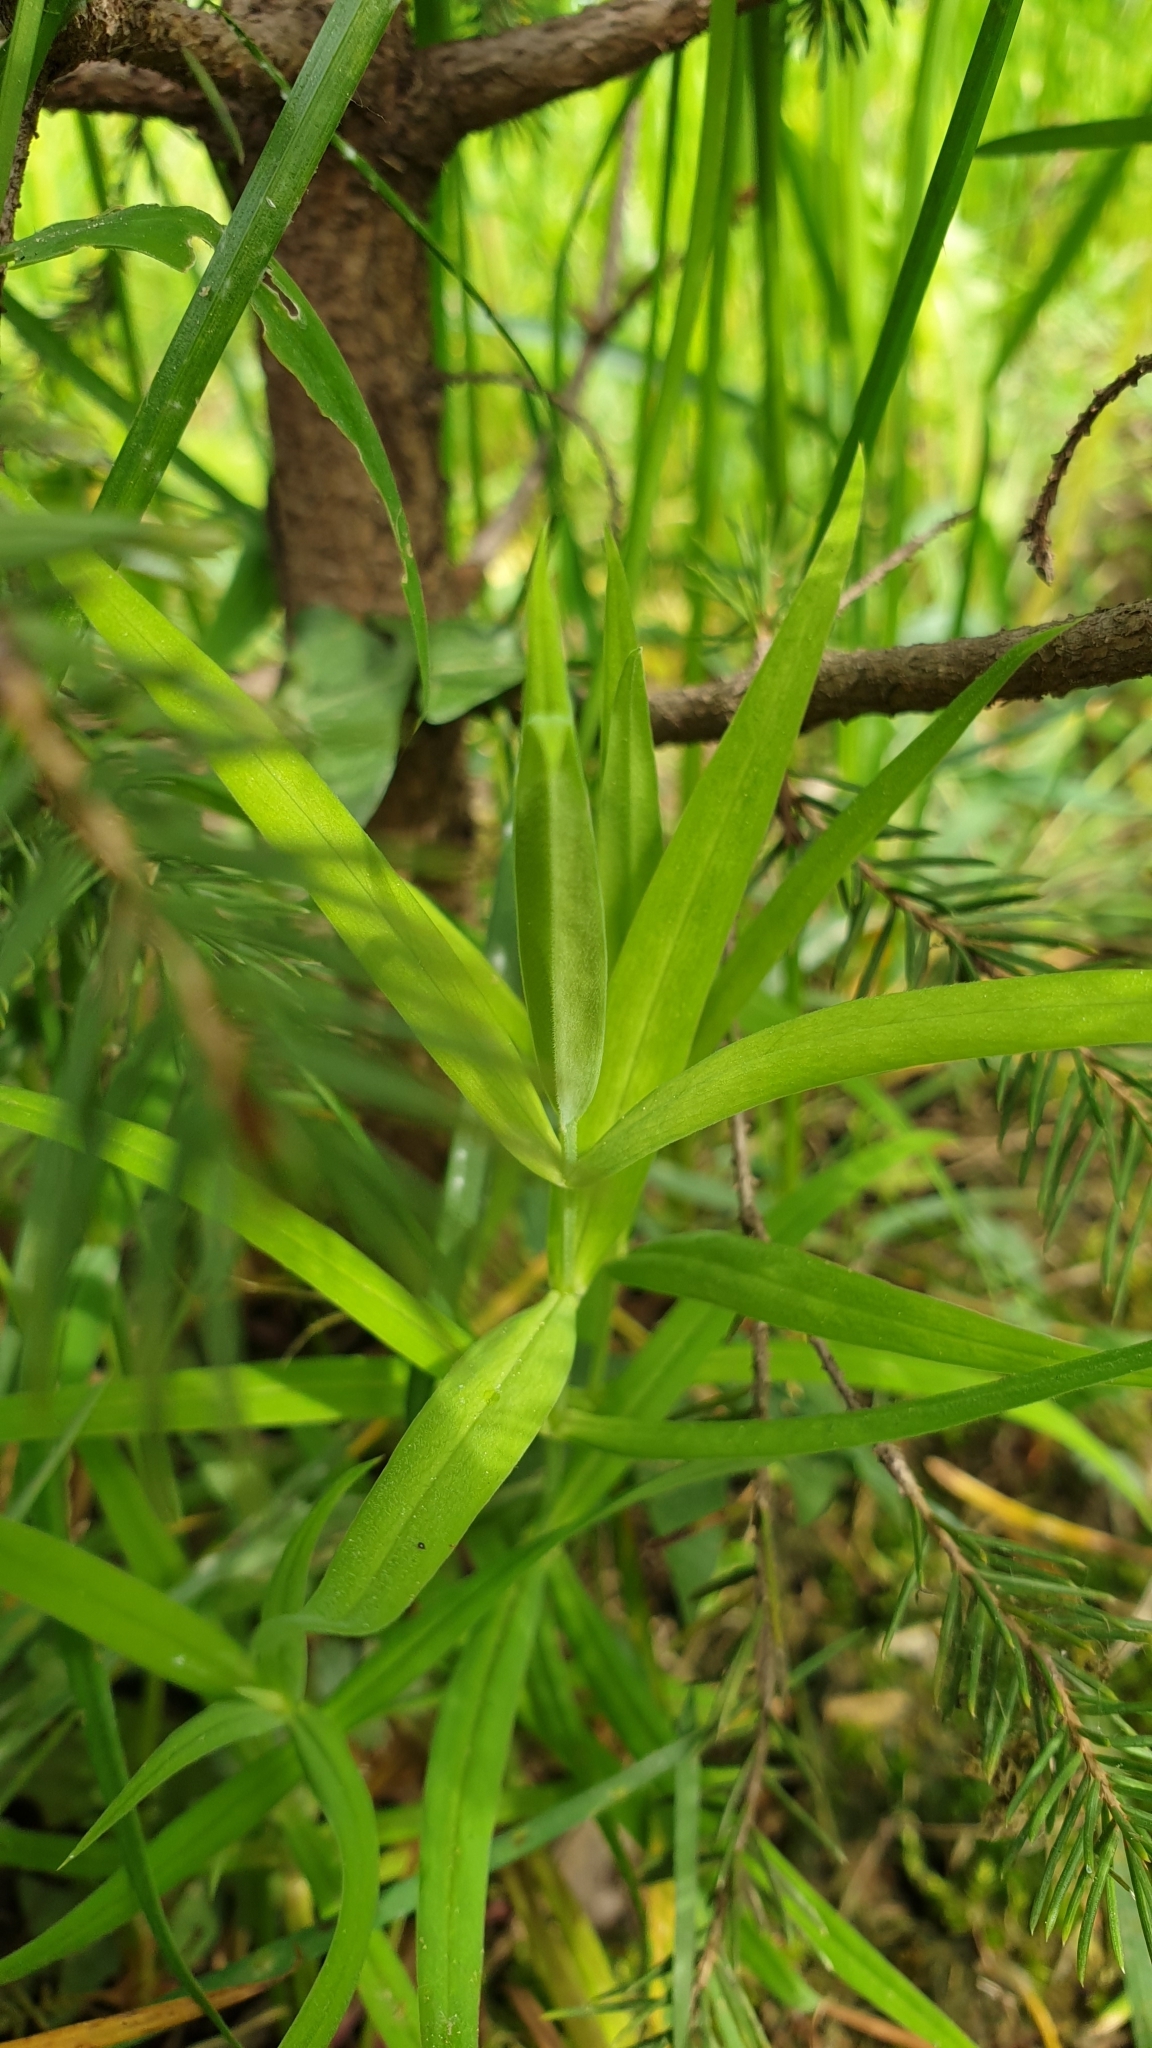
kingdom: Plantae
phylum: Tracheophyta
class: Magnoliopsida
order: Caryophyllales
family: Caryophyllaceae
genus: Rabelera
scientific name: Rabelera holostea
